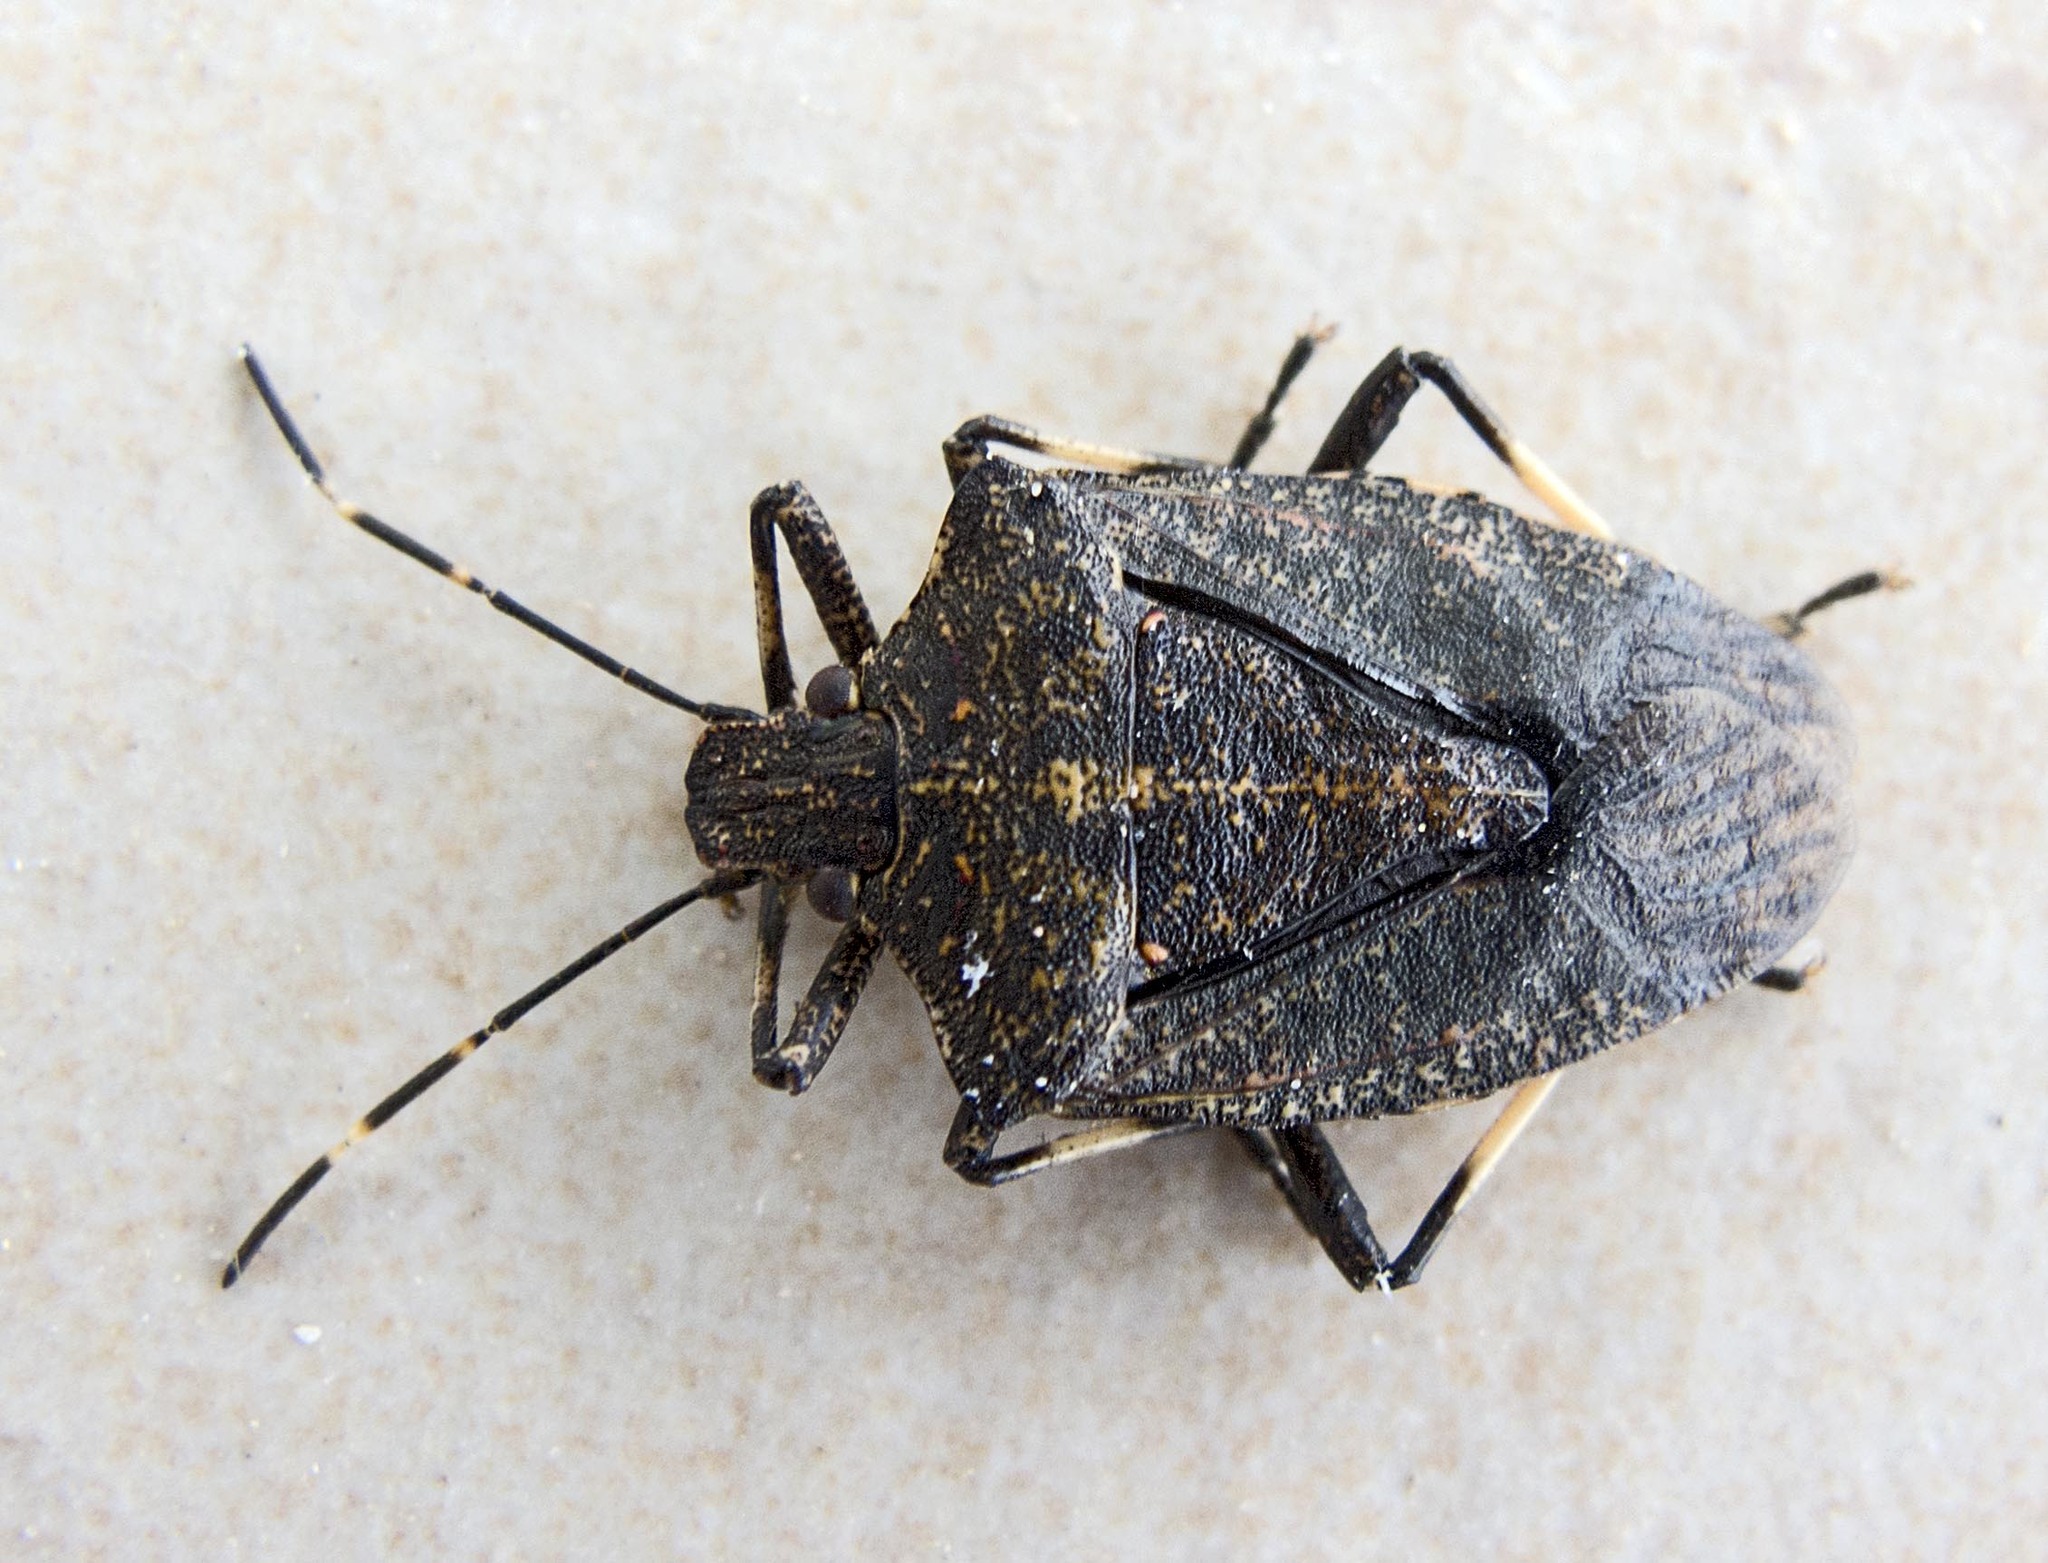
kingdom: Animalia
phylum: Arthropoda
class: Insecta
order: Hemiptera
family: Pentatomidae
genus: Halyomorpha
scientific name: Halyomorpha halys
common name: Brown marmorated stink bug
